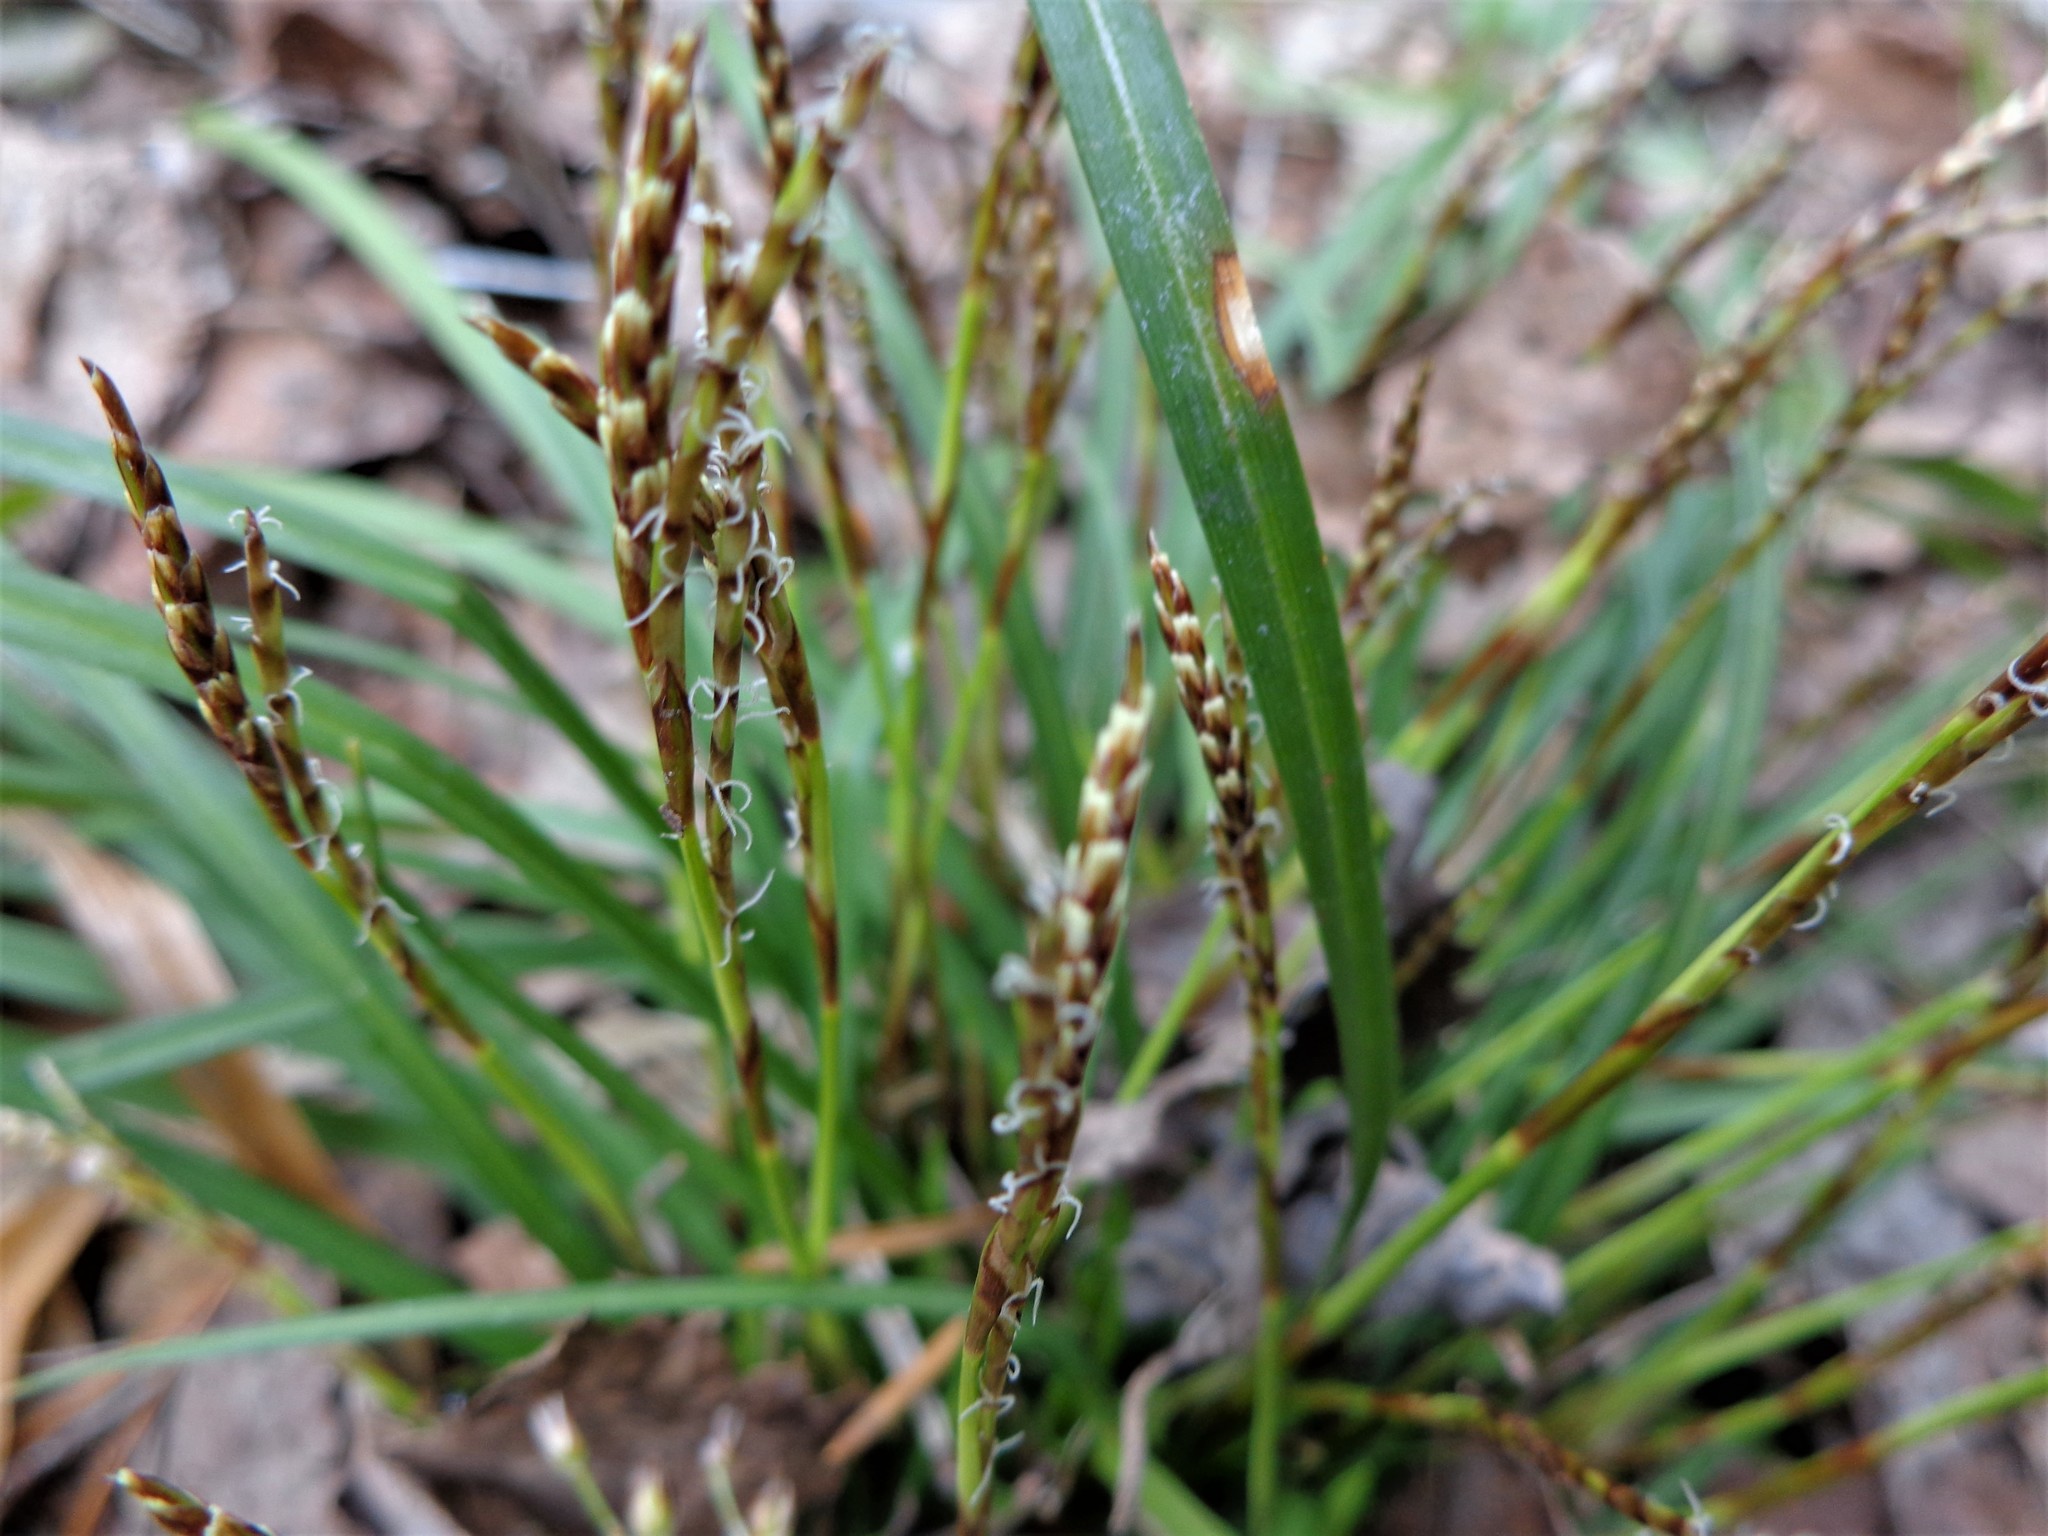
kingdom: Plantae
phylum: Tracheophyta
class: Liliopsida
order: Poales
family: Cyperaceae
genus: Carex
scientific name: Carex digitata
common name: Fingered sedge
